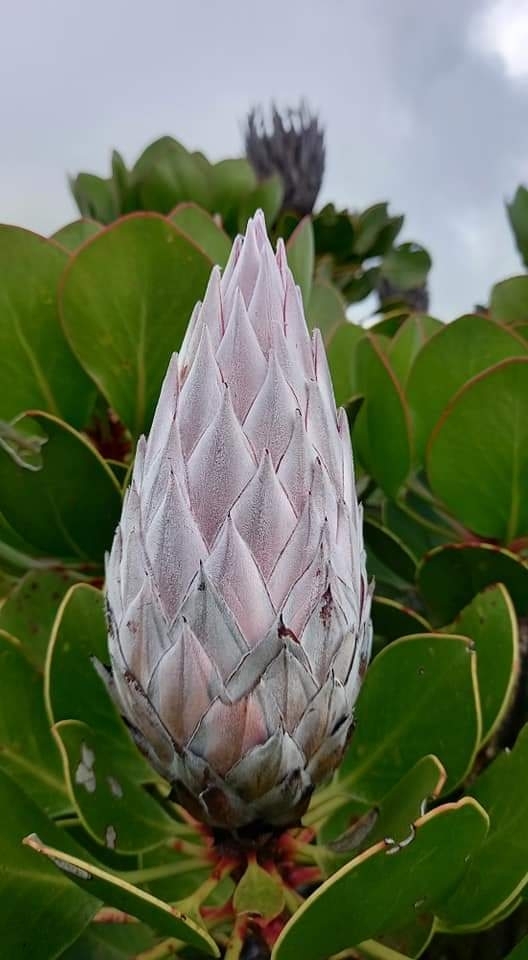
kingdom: Plantae
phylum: Tracheophyta
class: Magnoliopsida
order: Proteales
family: Proteaceae
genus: Protea
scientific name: Protea cynaroides
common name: King protea
